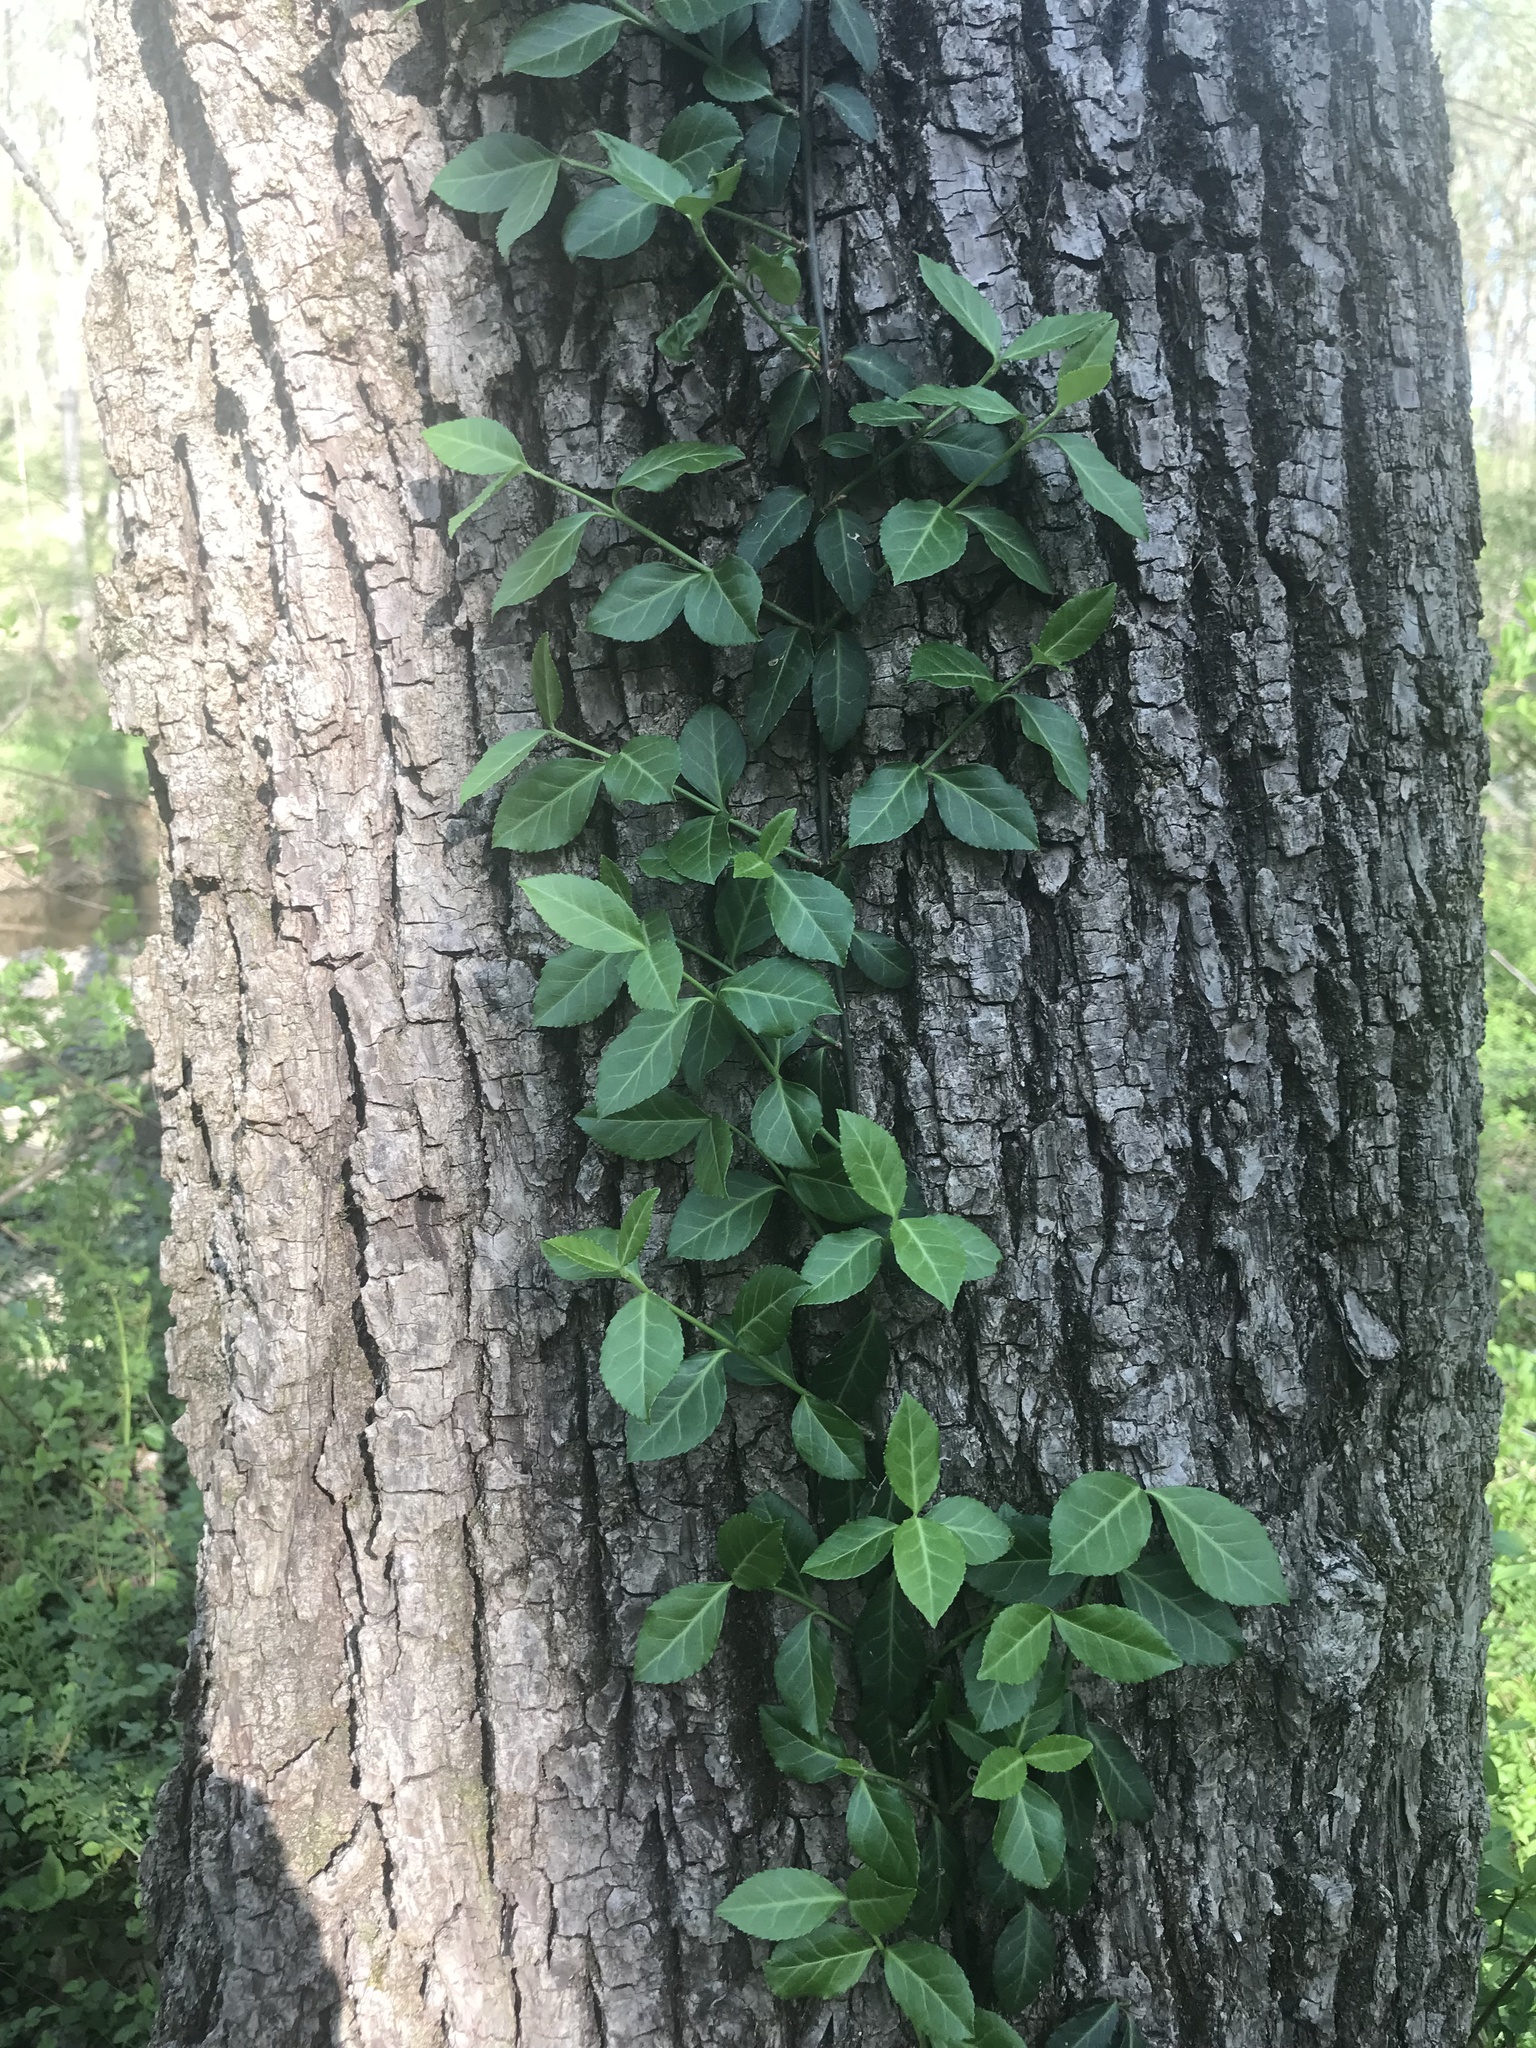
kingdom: Plantae
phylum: Tracheophyta
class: Magnoliopsida
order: Celastrales
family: Celastraceae
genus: Euonymus
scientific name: Euonymus fortunei
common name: Climbing euonymus
